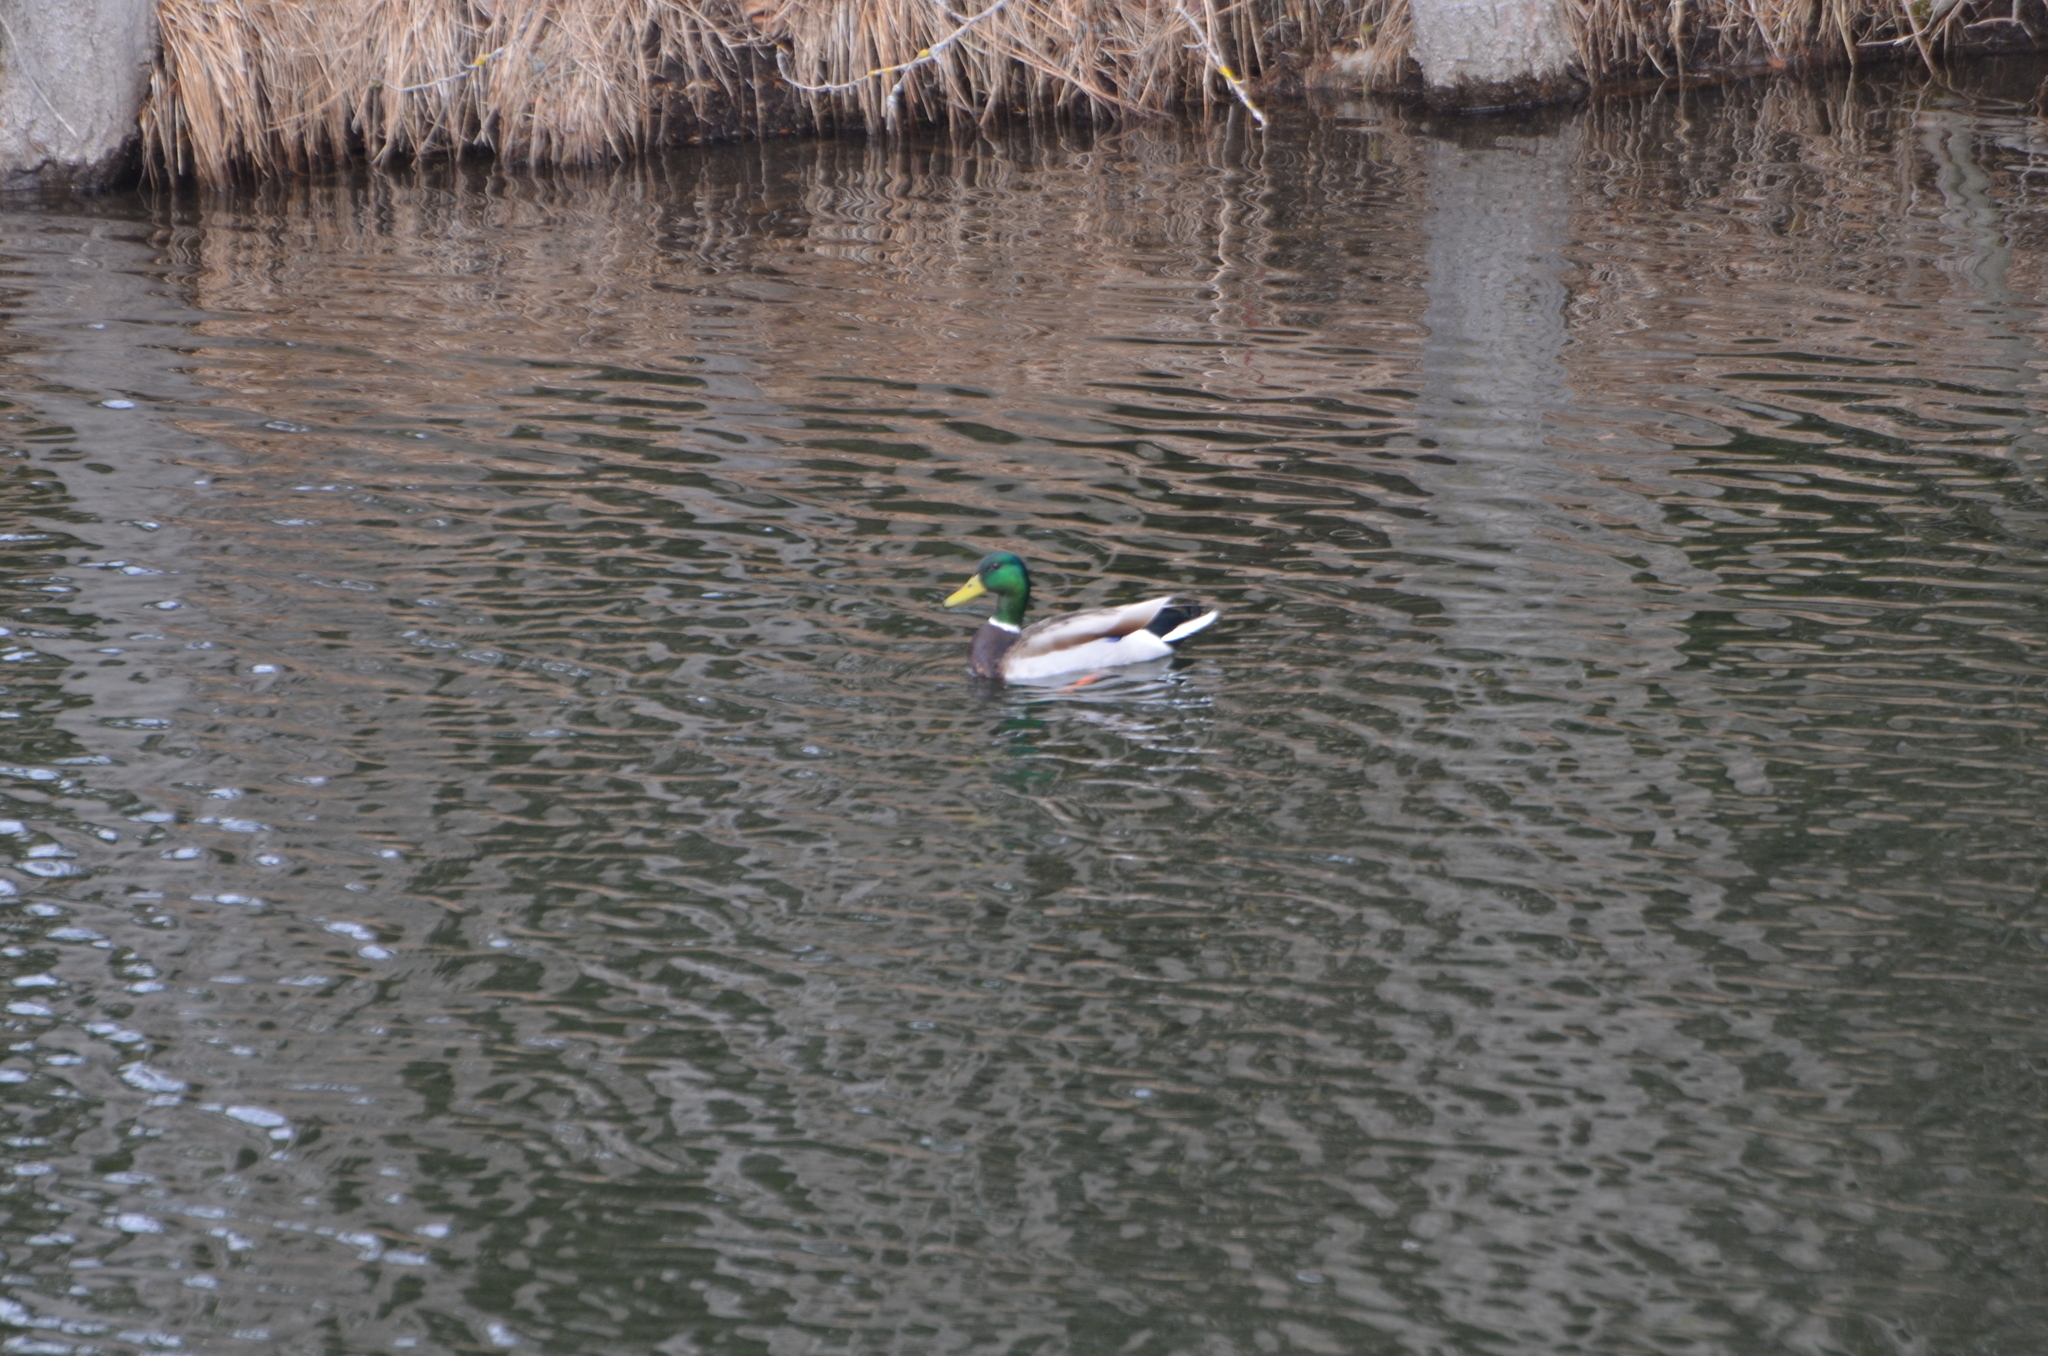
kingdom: Animalia
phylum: Chordata
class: Aves
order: Anseriformes
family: Anatidae
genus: Anas
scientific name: Anas platyrhynchos
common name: Mallard
